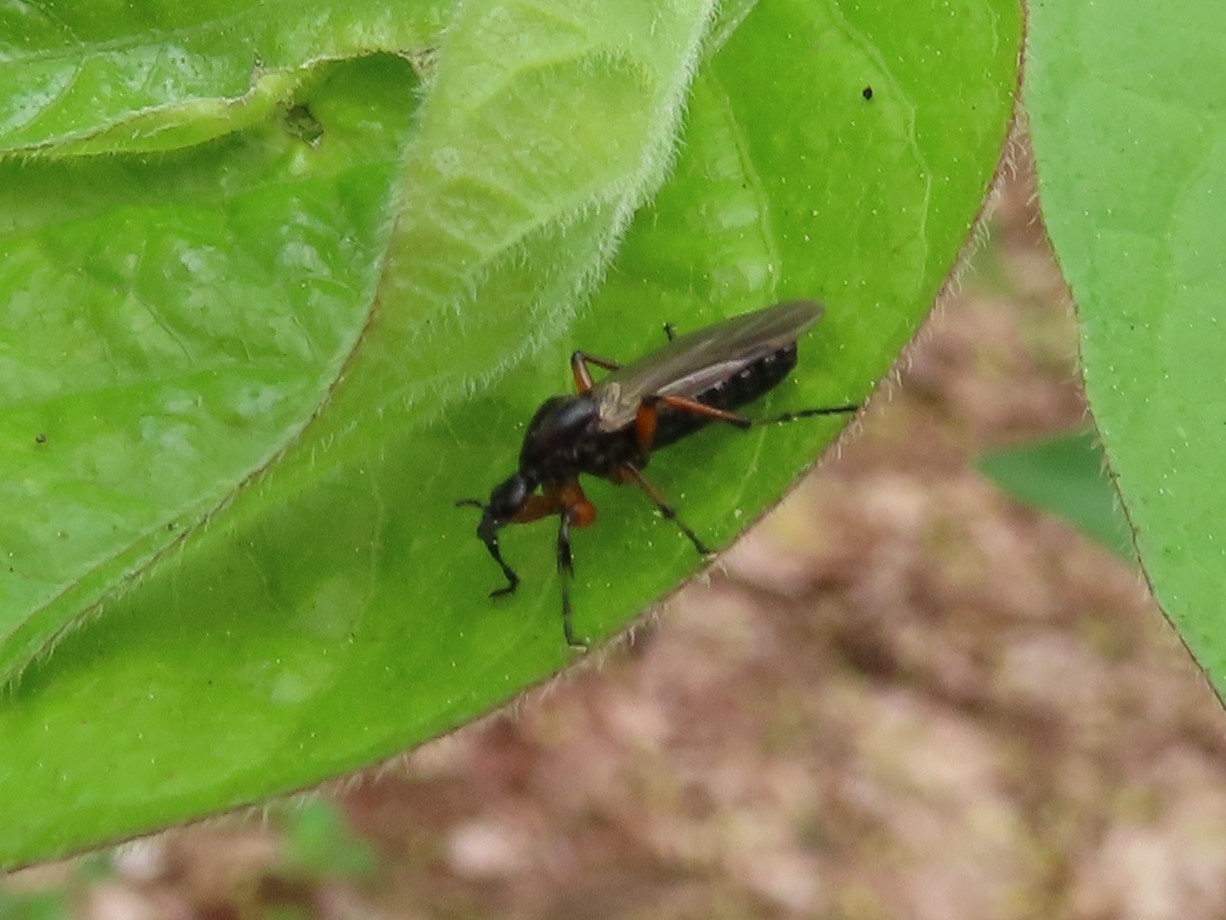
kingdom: Animalia
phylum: Arthropoda
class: Insecta
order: Diptera
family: Bibionidae
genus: Bibio
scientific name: Bibio
